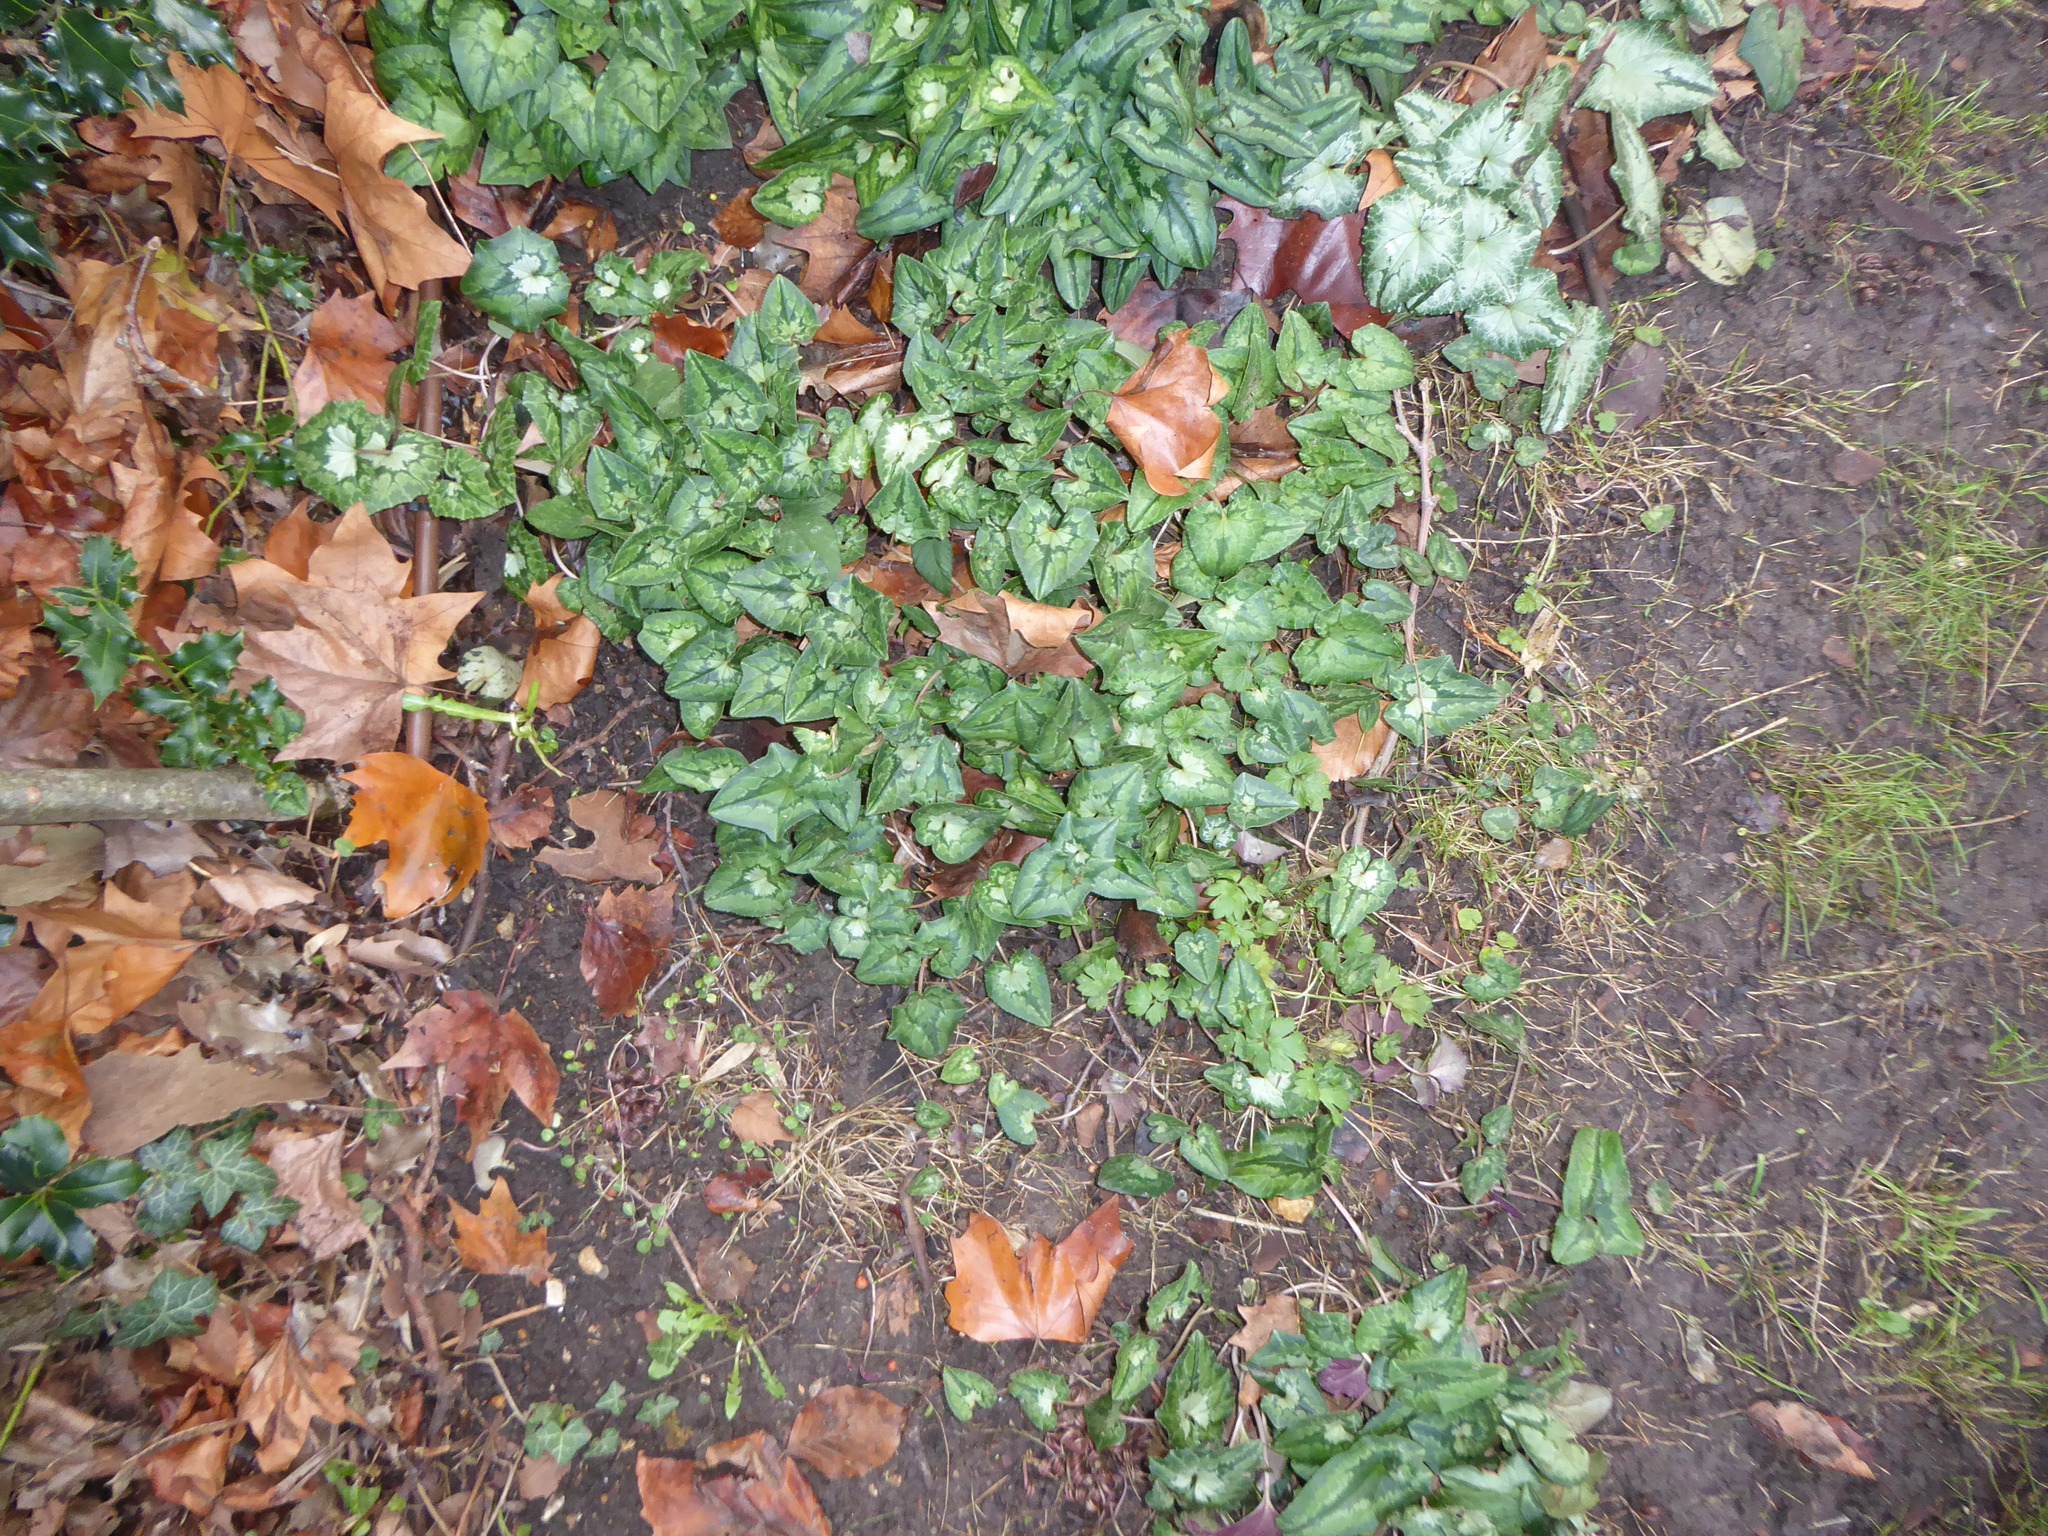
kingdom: Plantae
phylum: Tracheophyta
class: Magnoliopsida
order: Ericales
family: Primulaceae
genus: Cyclamen
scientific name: Cyclamen hederifolium
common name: Sowbread
